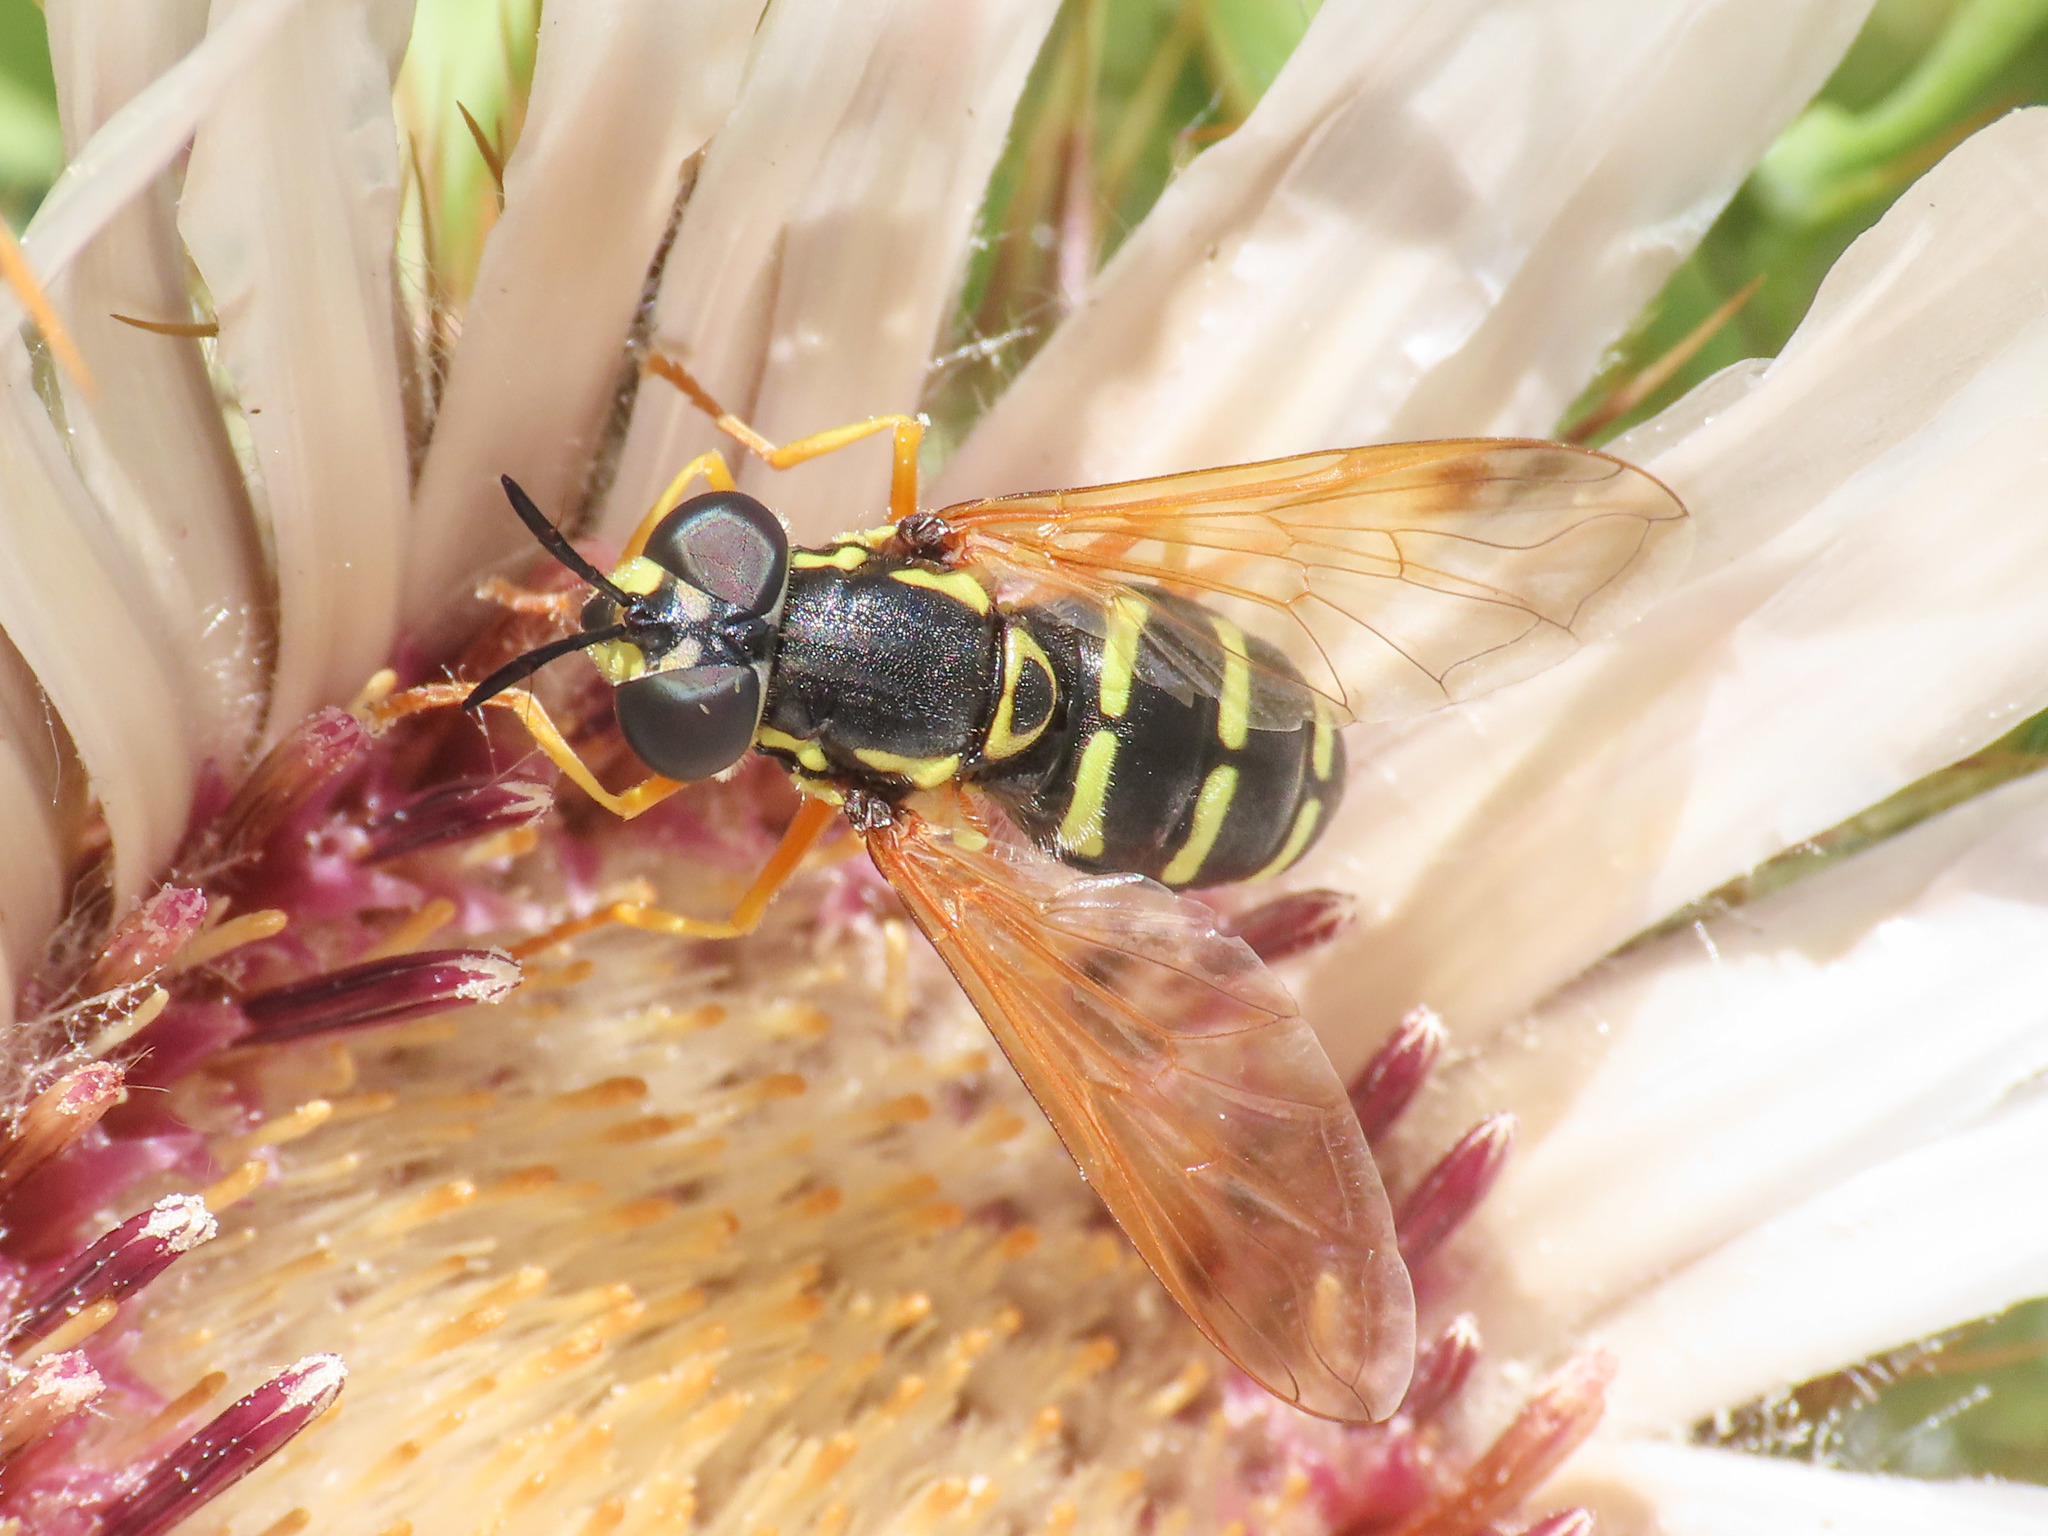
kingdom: Animalia
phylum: Arthropoda
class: Insecta
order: Diptera
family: Syrphidae
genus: Chrysotoxum
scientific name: Chrysotoxum festivum
